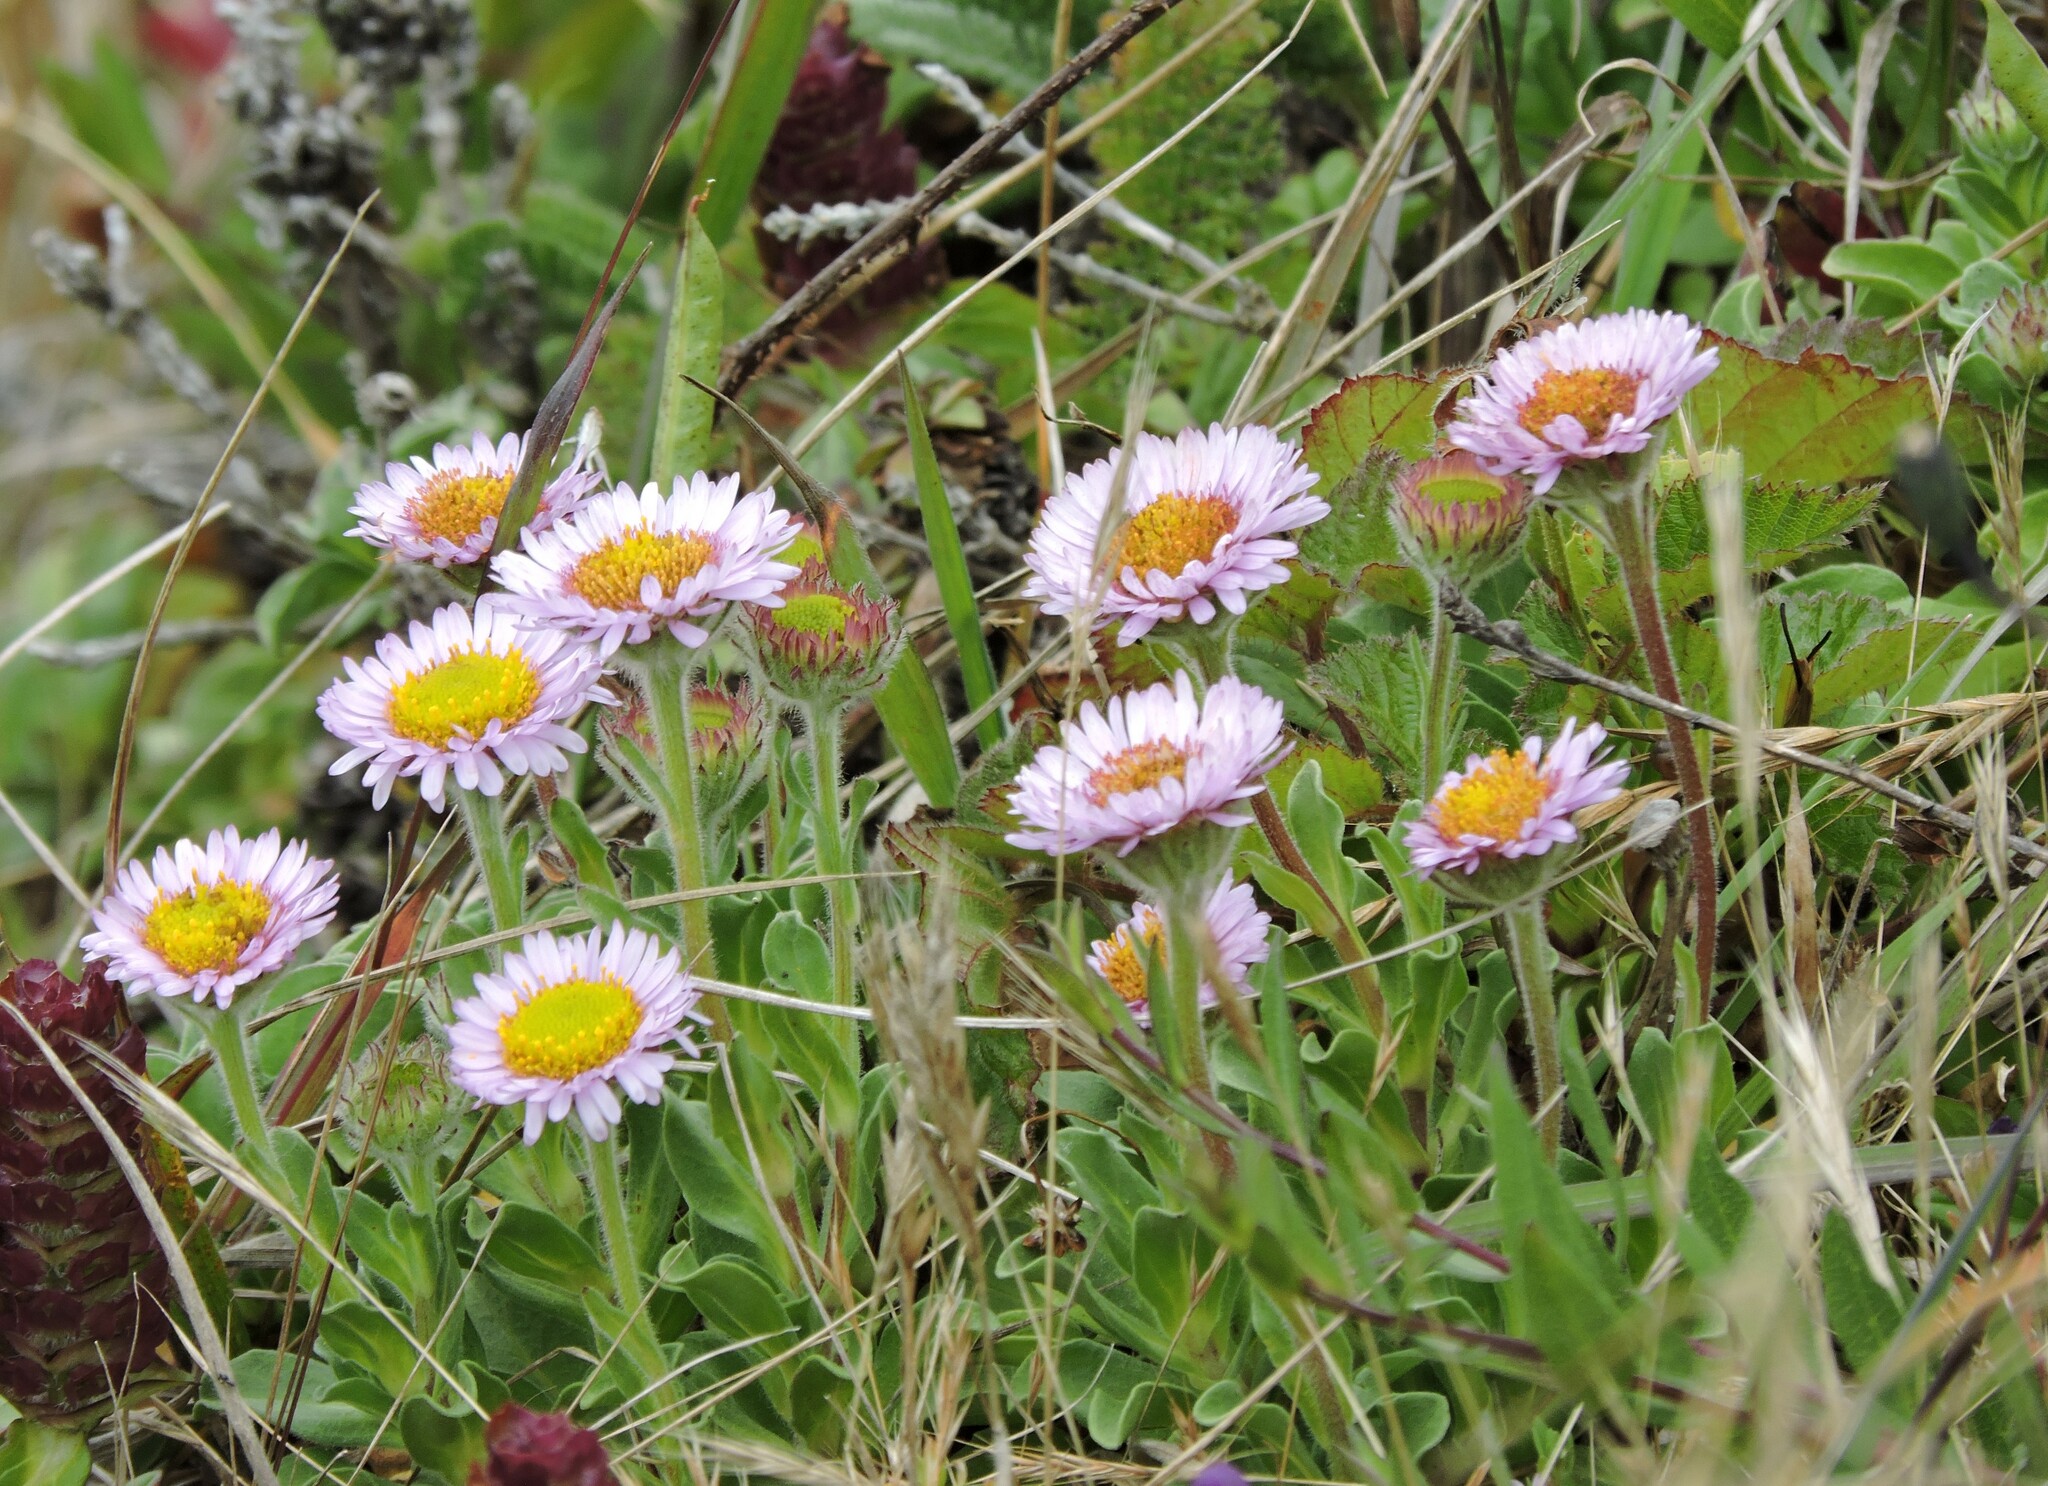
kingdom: Plantae
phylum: Tracheophyta
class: Magnoliopsida
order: Asterales
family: Asteraceae
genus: Erigeron
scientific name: Erigeron glaucus
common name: Seaside daisy
